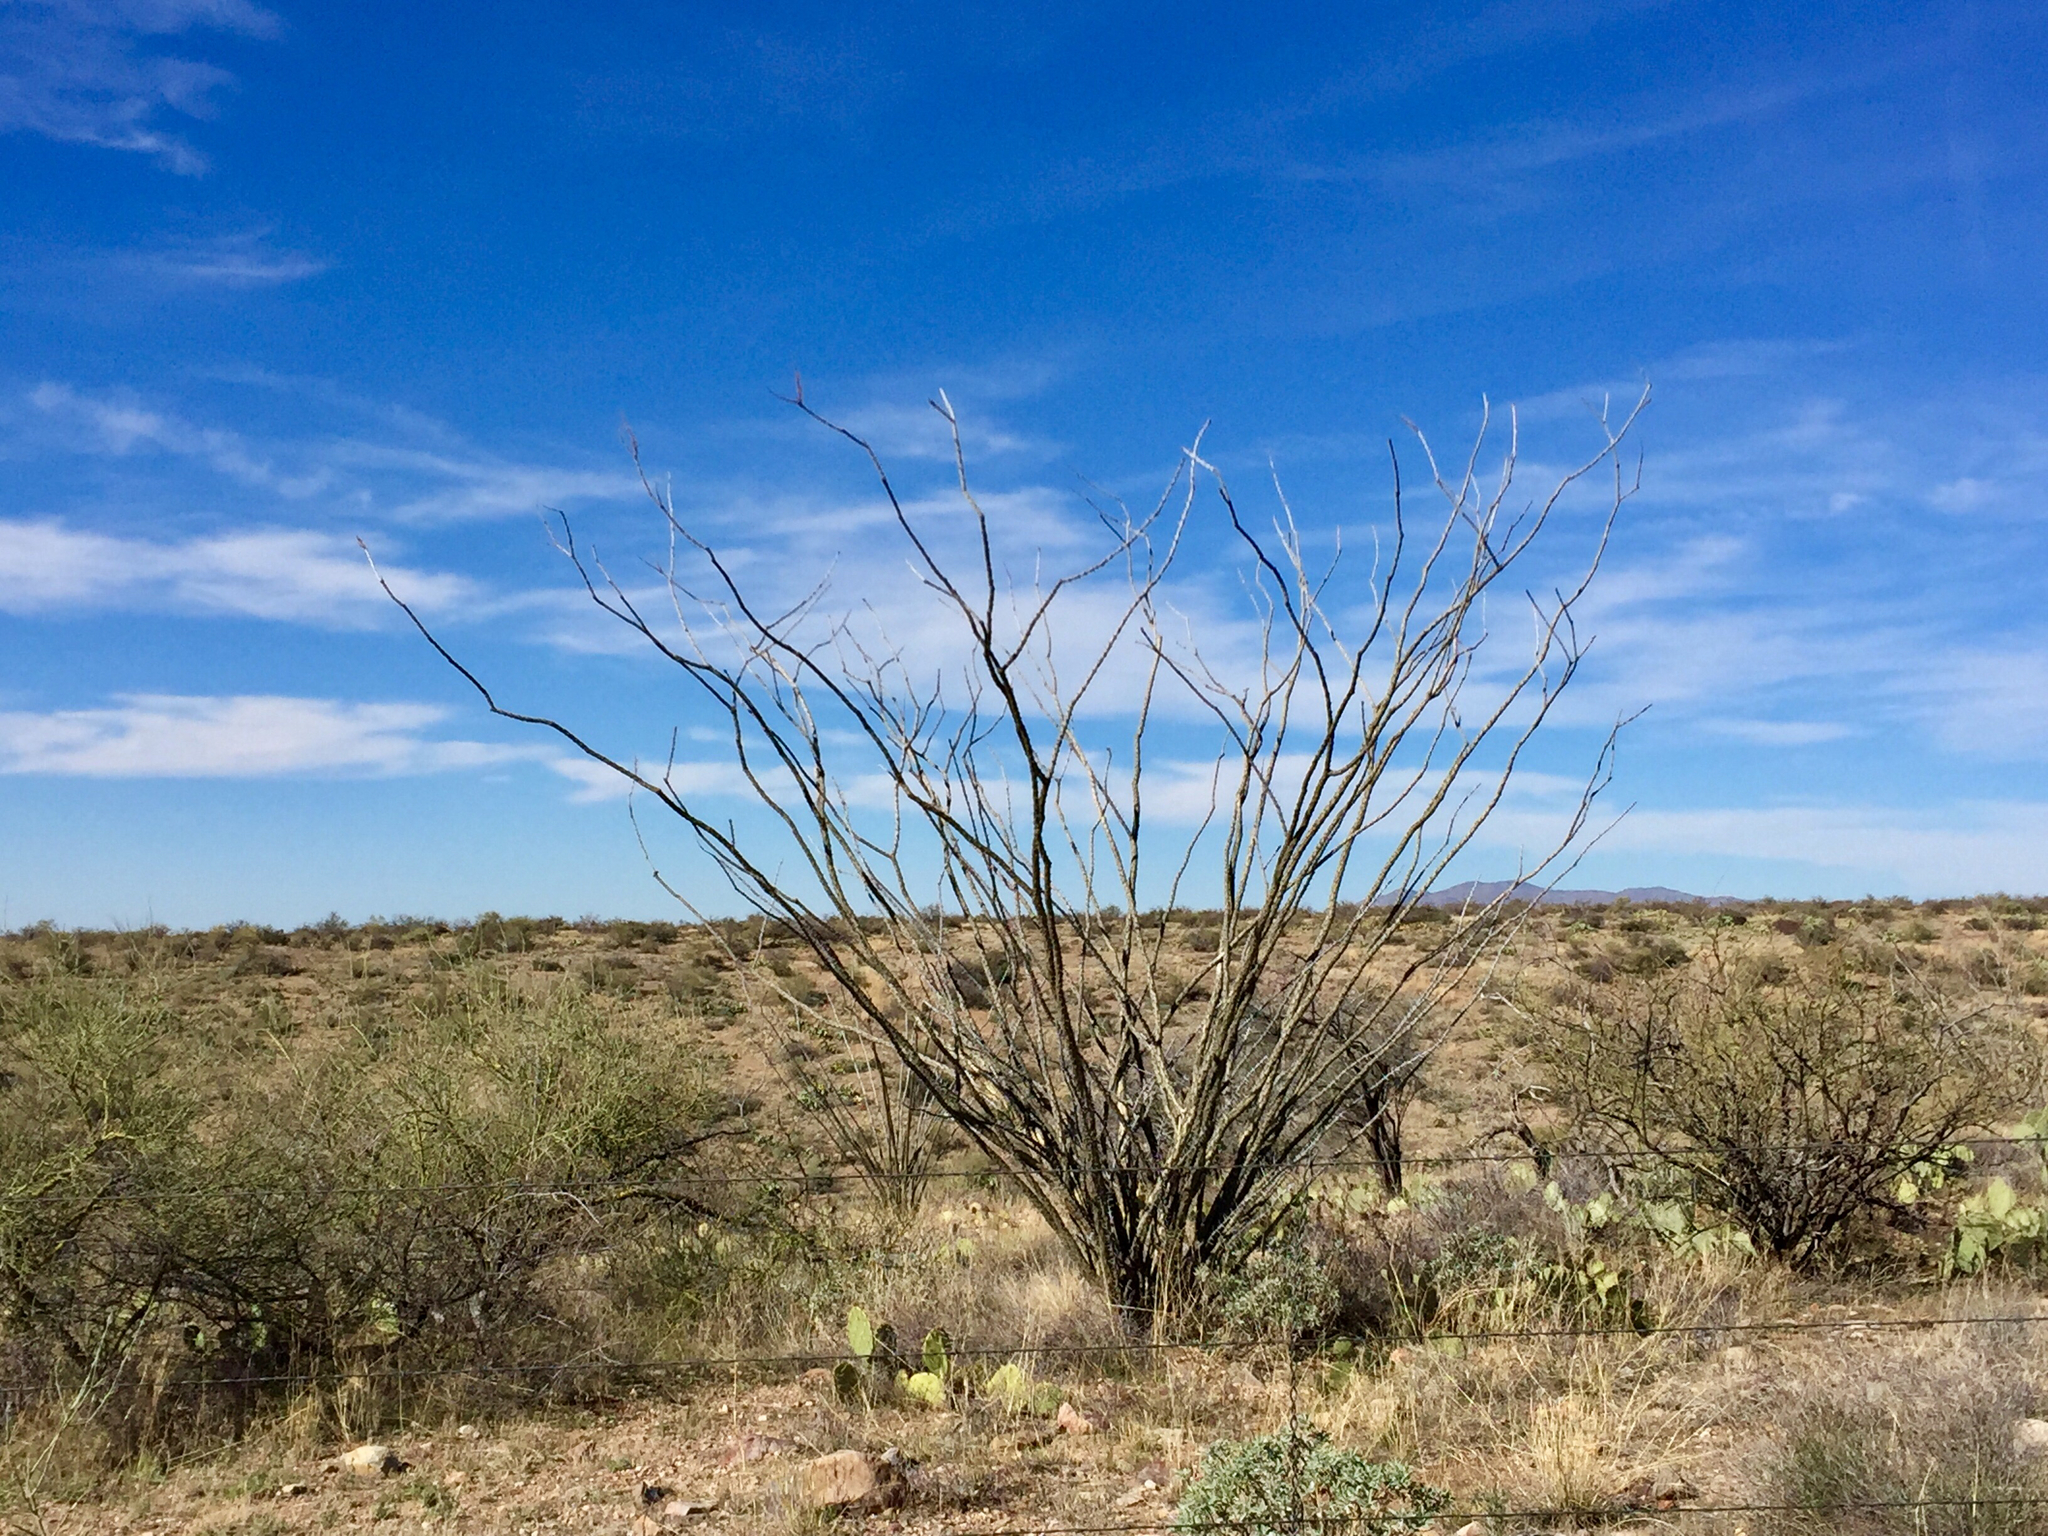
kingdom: Plantae
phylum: Tracheophyta
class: Magnoliopsida
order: Ericales
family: Fouquieriaceae
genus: Fouquieria
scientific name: Fouquieria splendens
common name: Vine-cactus
